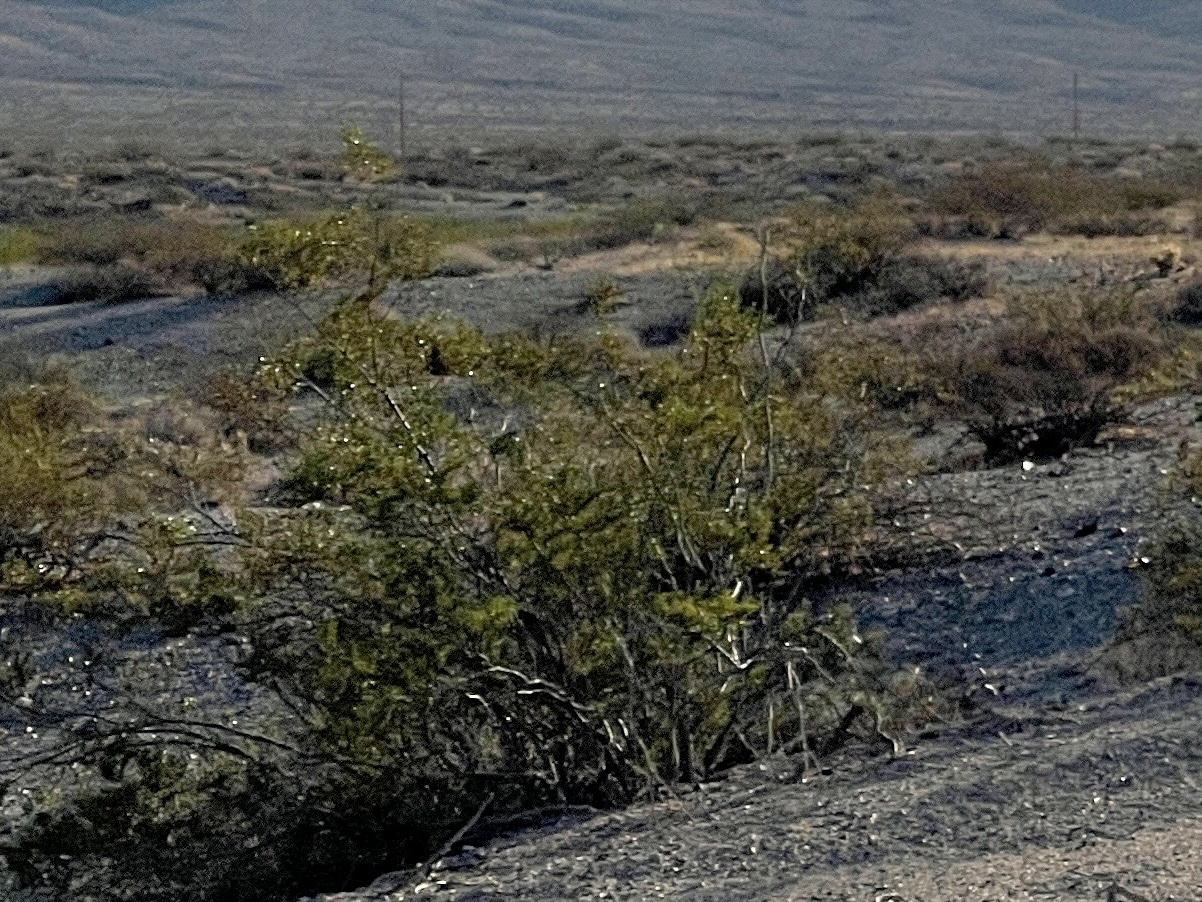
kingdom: Plantae
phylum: Tracheophyta
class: Magnoliopsida
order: Zygophyllales
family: Zygophyllaceae
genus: Larrea
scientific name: Larrea tridentata
